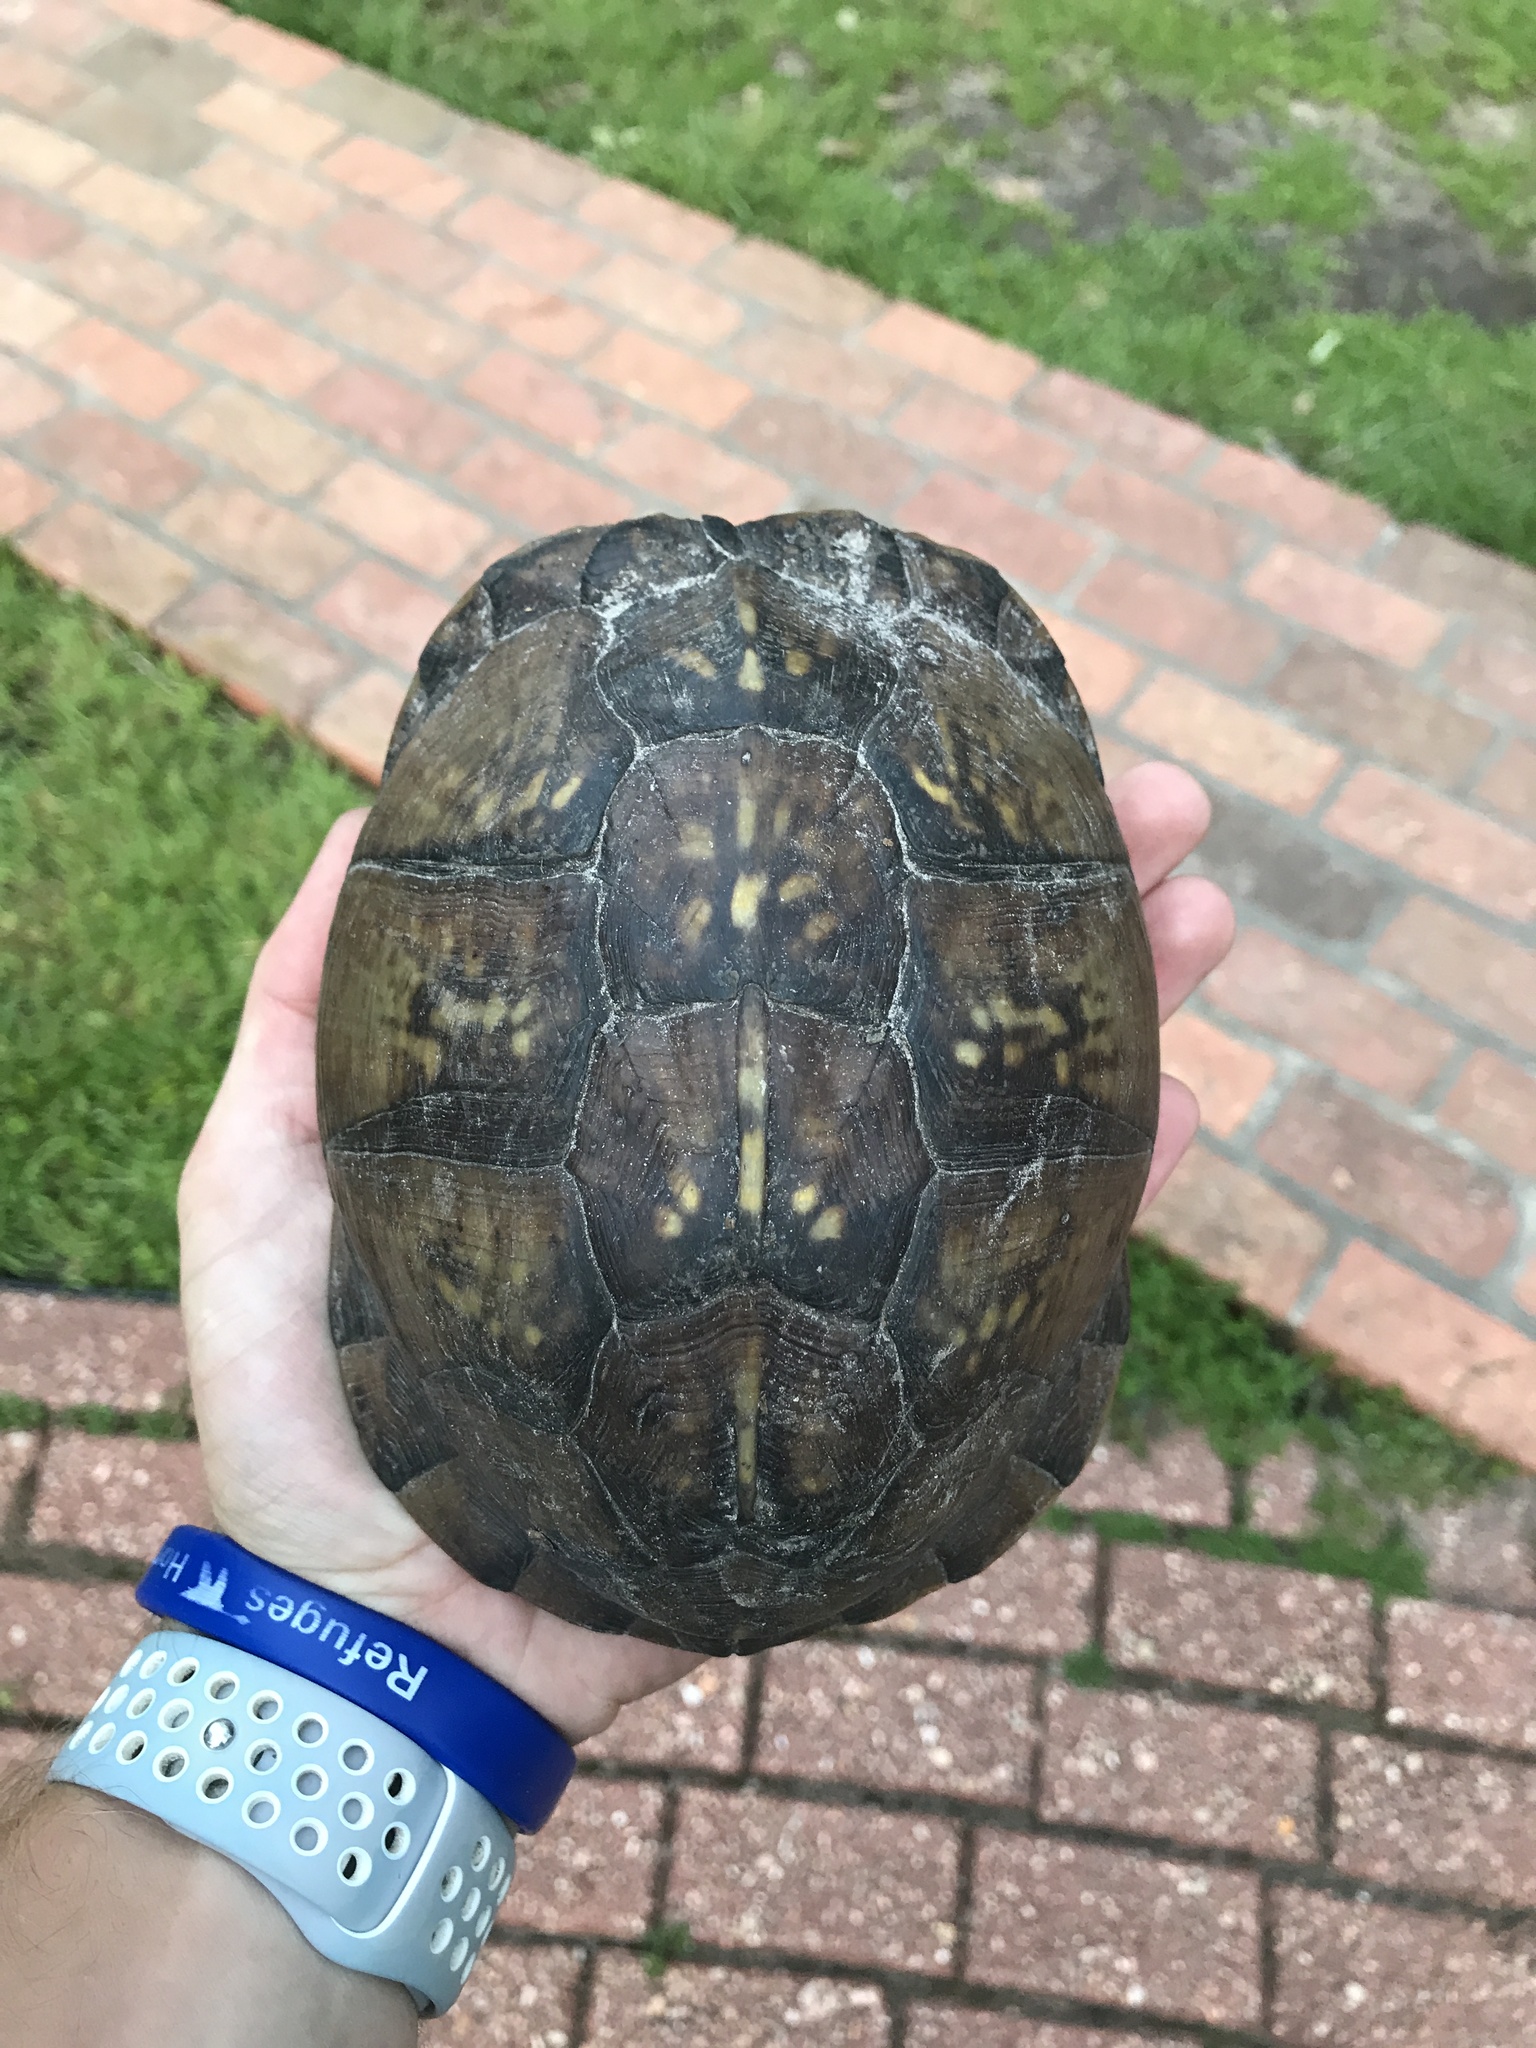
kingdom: Animalia
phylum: Chordata
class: Testudines
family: Emydidae
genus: Terrapene
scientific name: Terrapene carolina
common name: Common box turtle
